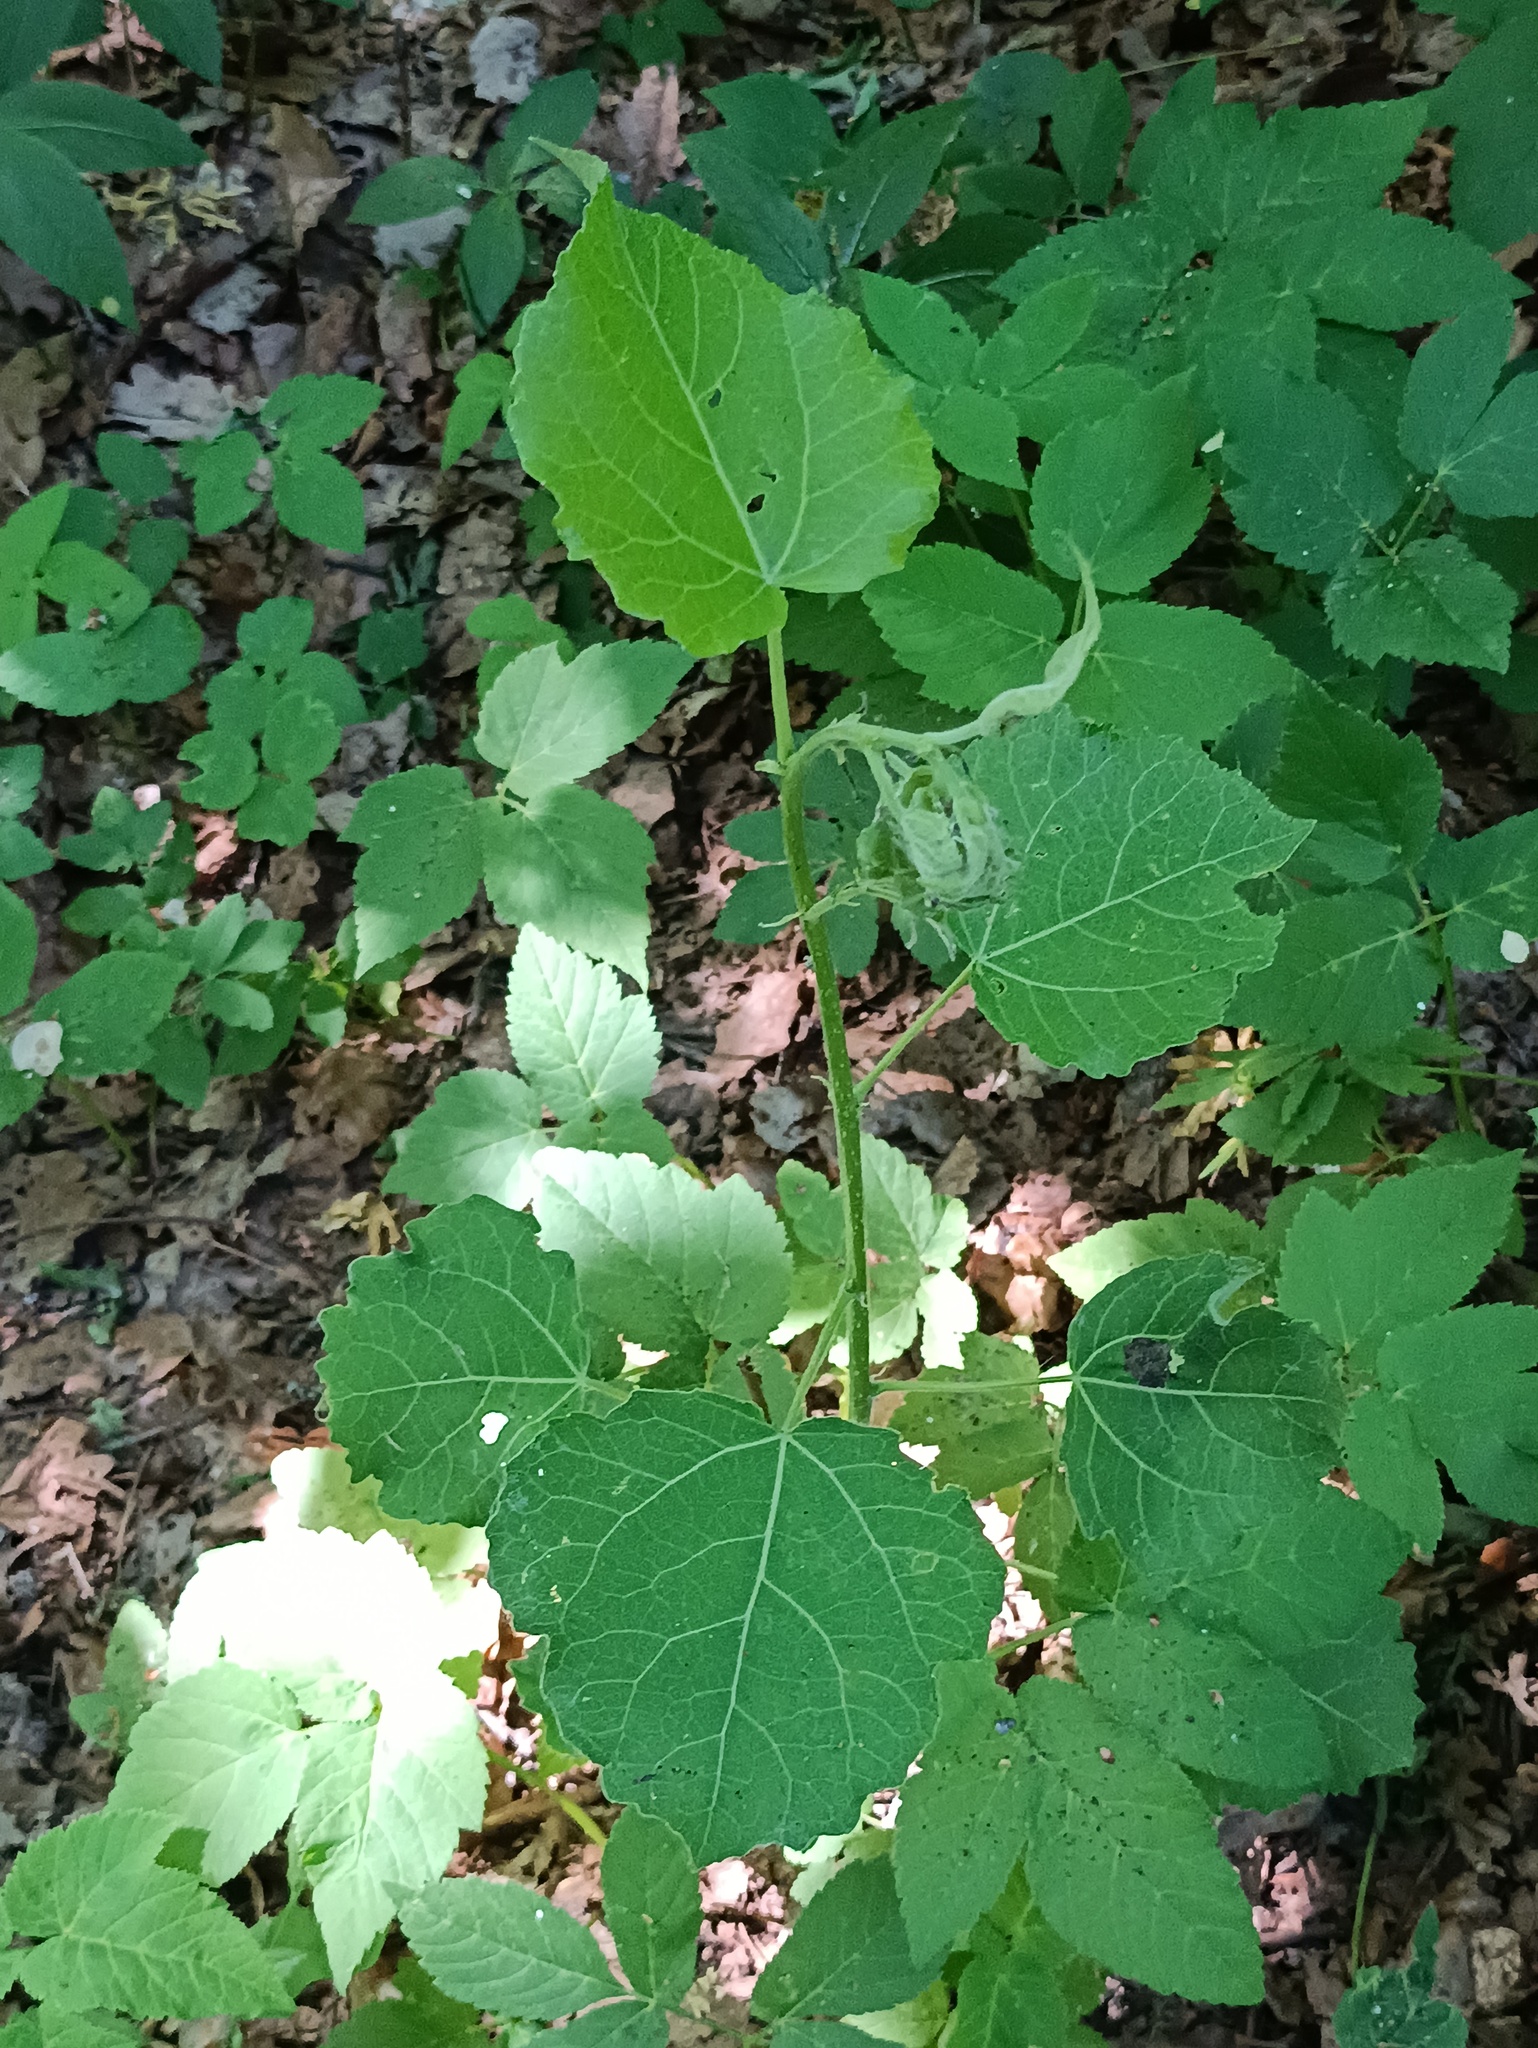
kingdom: Plantae
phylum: Tracheophyta
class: Magnoliopsida
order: Malpighiales
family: Salicaceae
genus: Populus
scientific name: Populus tremula
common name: European aspen
